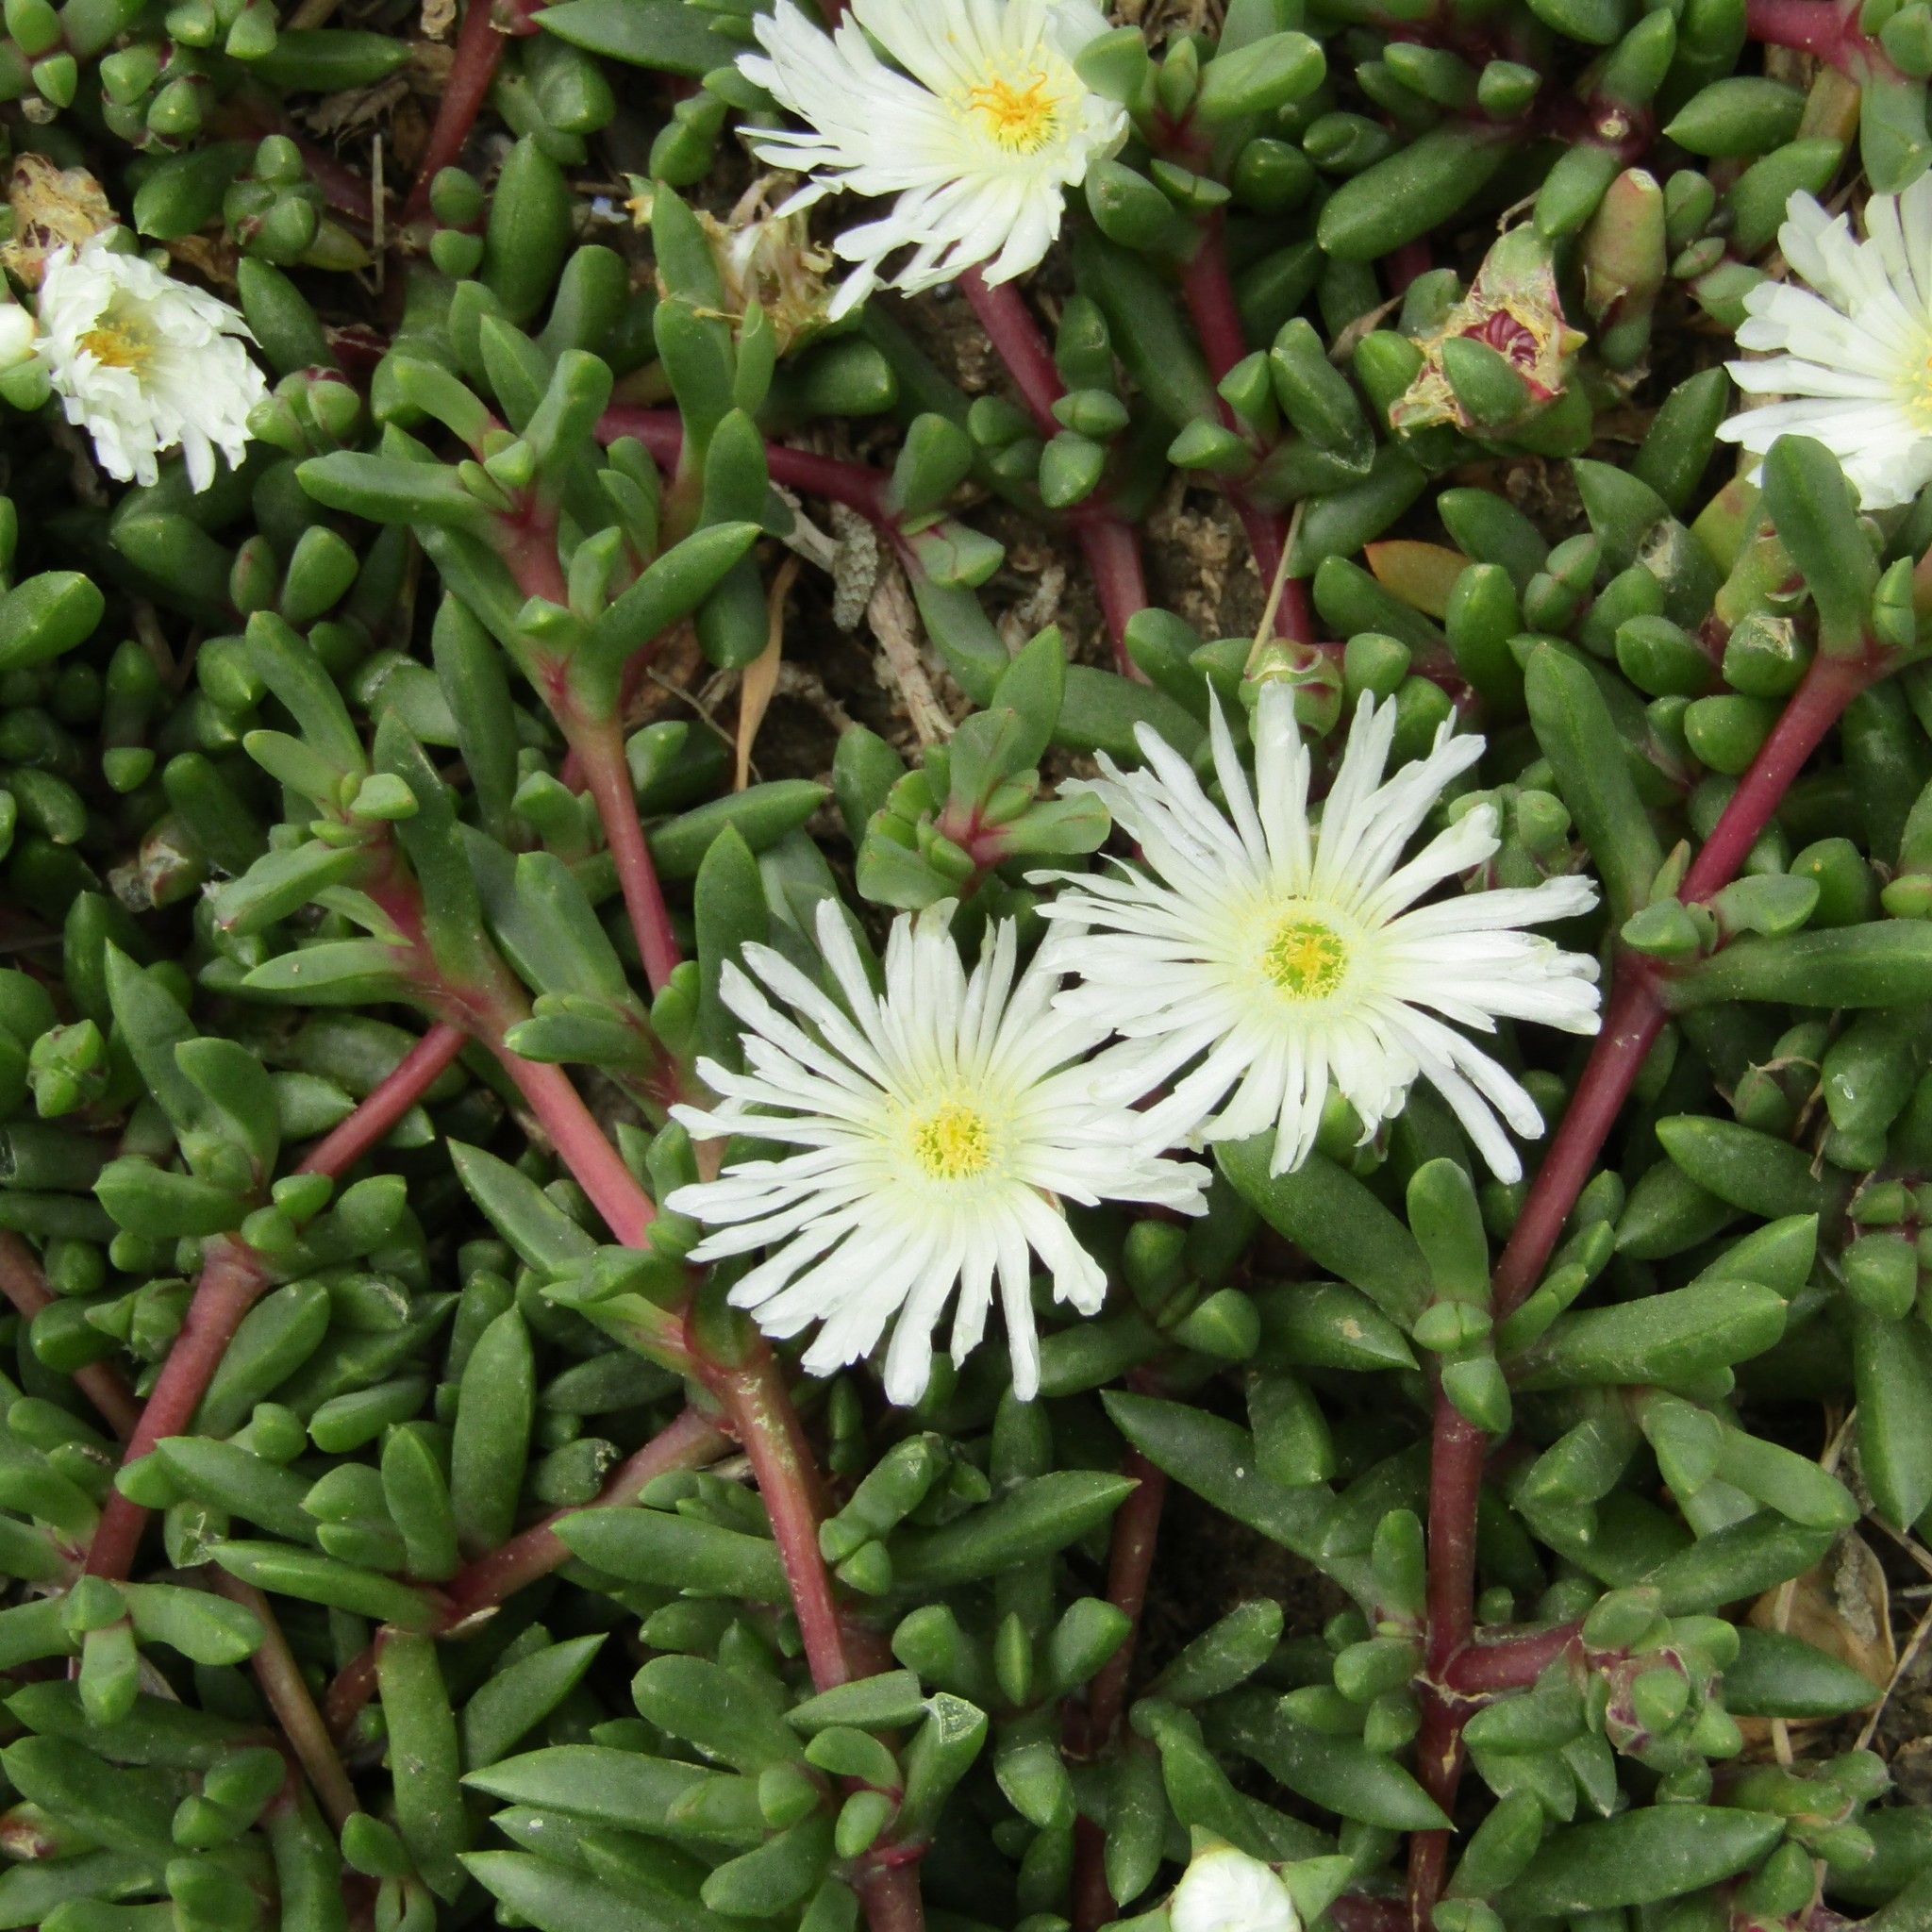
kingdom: Plantae
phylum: Tracheophyta
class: Magnoliopsida
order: Caryophyllales
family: Aizoaceae
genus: Disphyma
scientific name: Disphyma australe
